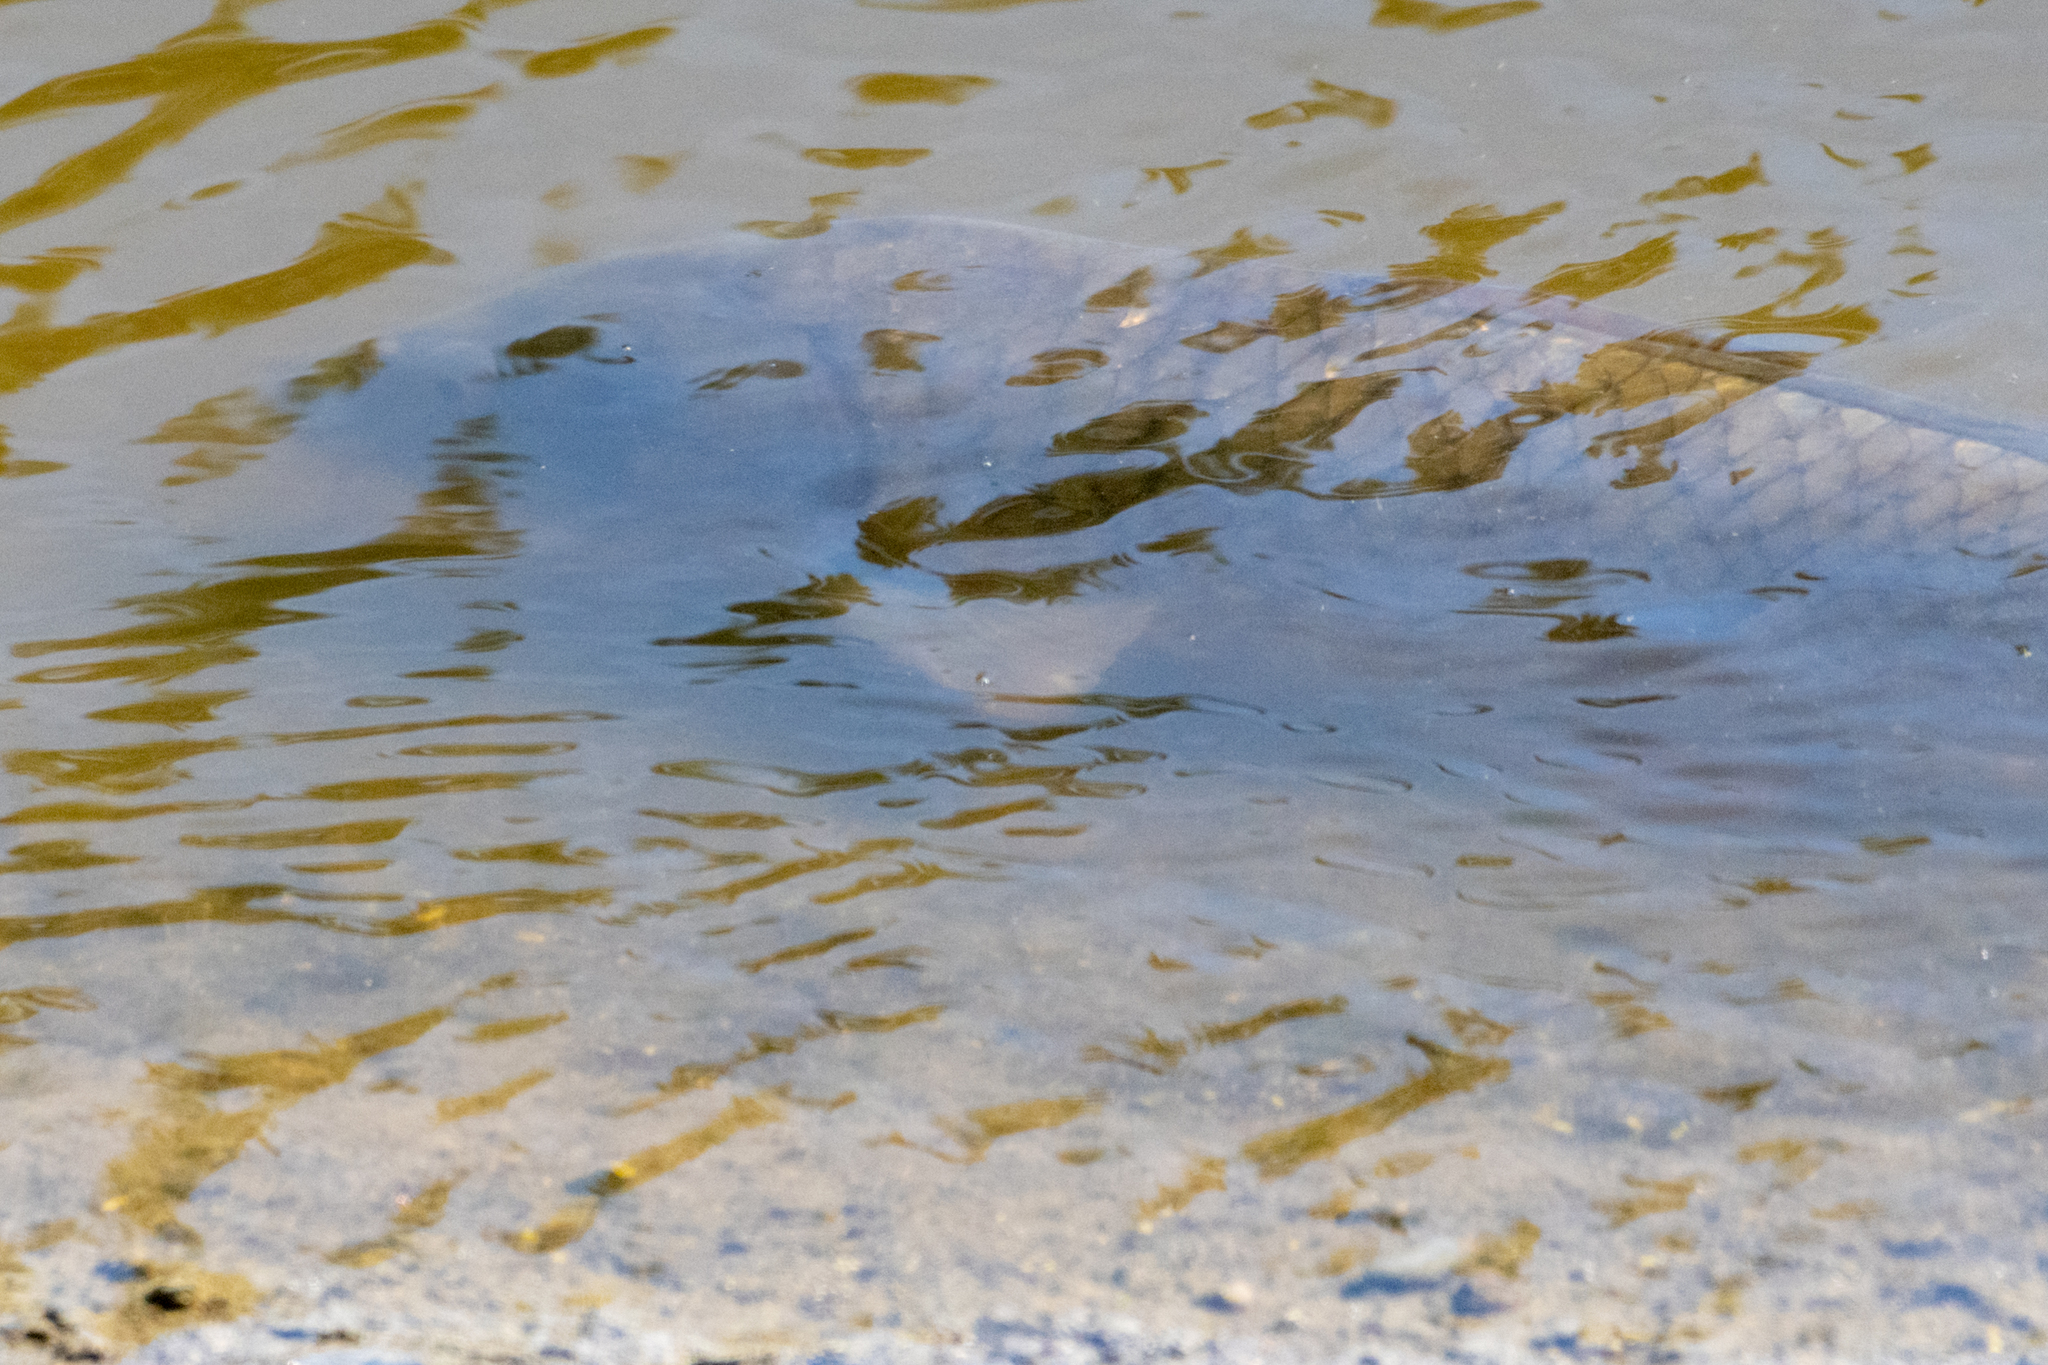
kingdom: Animalia
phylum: Chordata
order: Cypriniformes
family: Cyprinidae
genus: Cyprinus
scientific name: Cyprinus carpio
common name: Common carp
